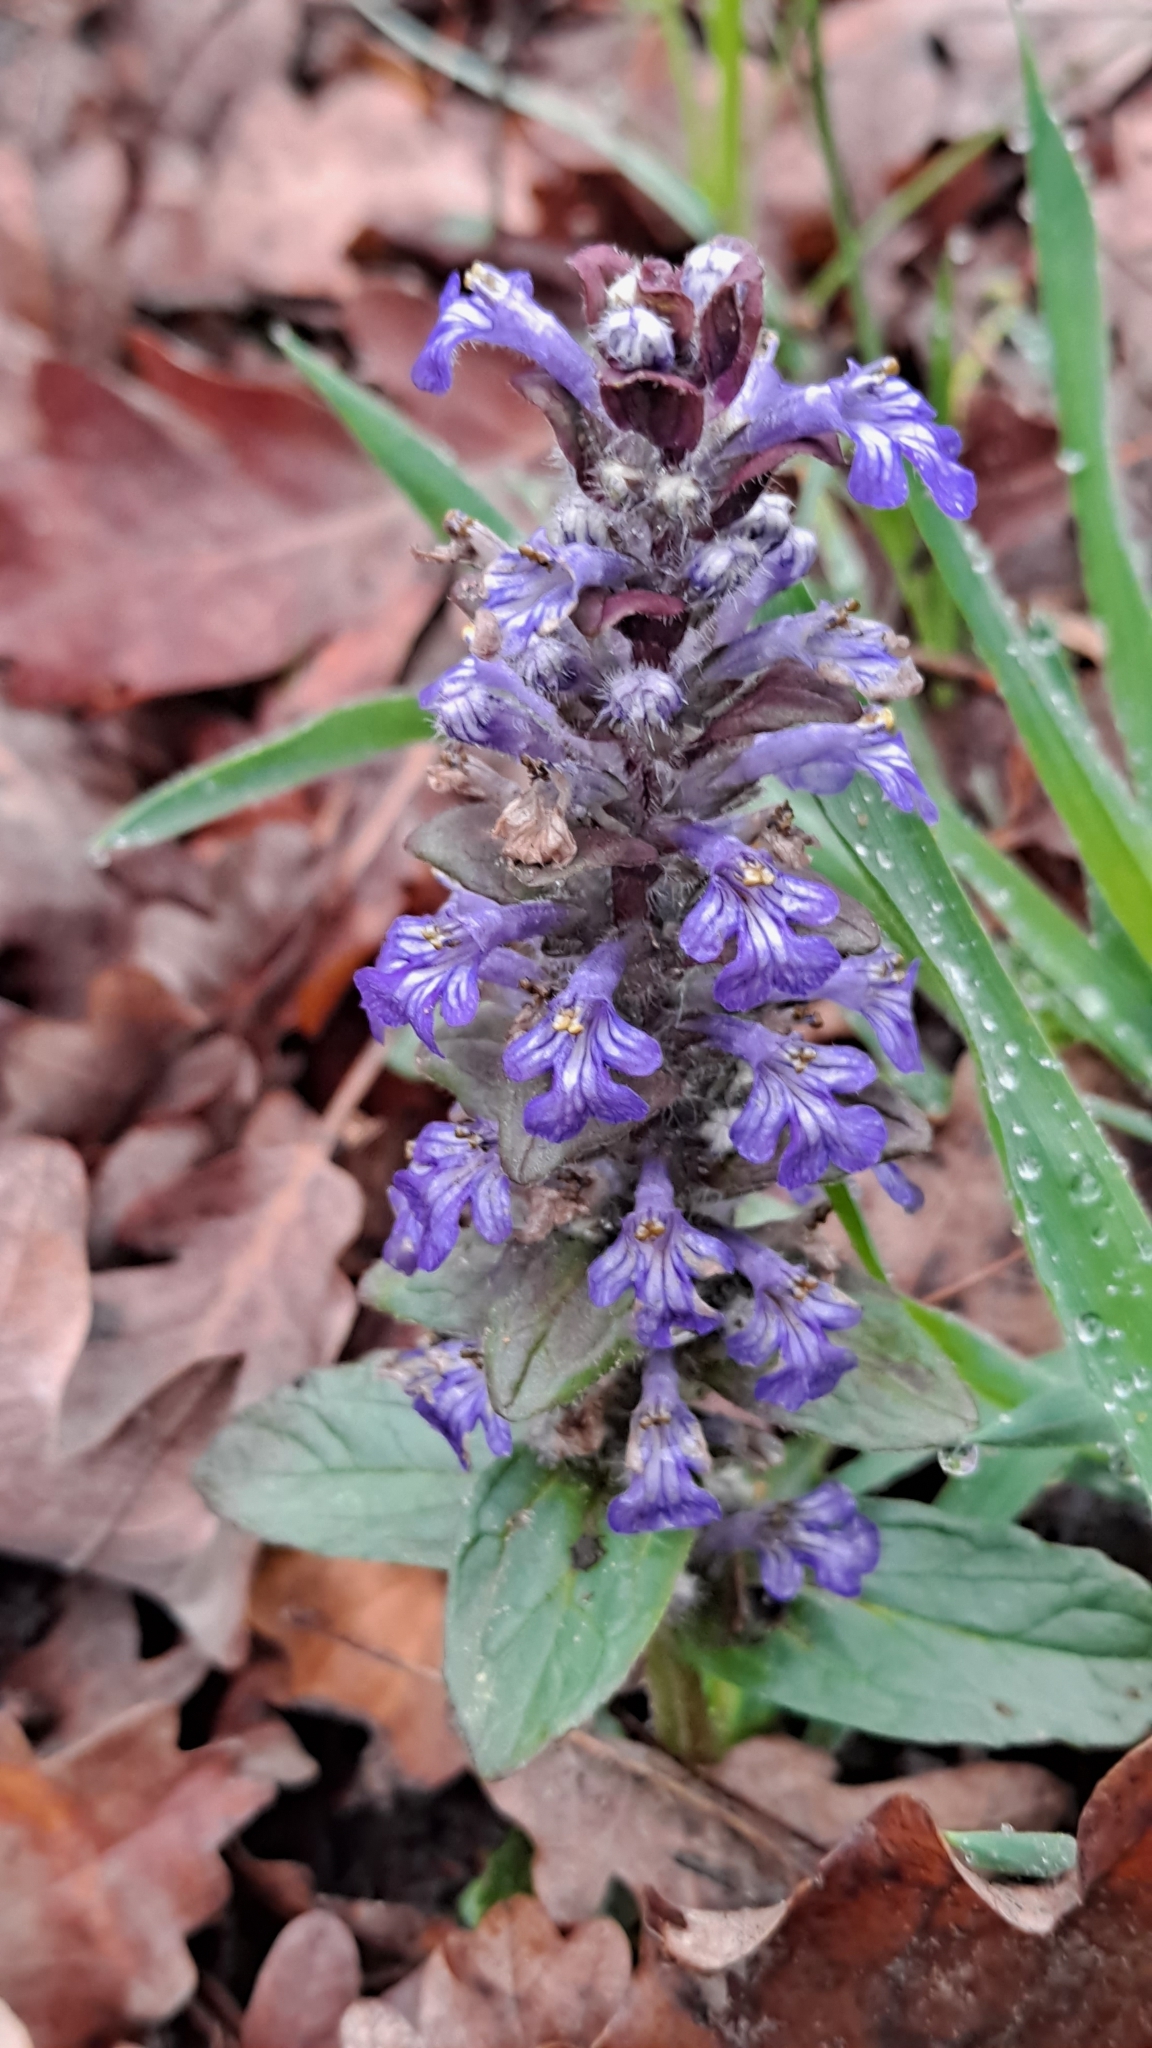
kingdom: Plantae
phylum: Tracheophyta
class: Magnoliopsida
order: Lamiales
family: Lamiaceae
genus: Ajuga
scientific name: Ajuga reptans
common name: Bugle
